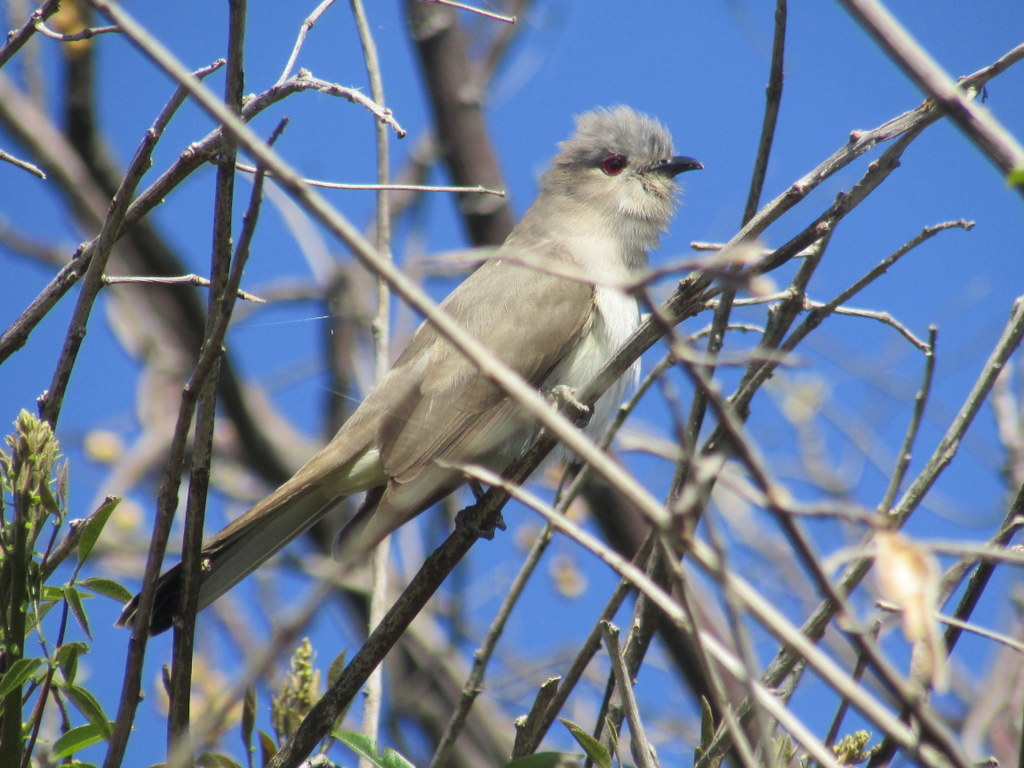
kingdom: Animalia
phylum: Chordata
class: Aves
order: Cuculiformes
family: Cuculidae
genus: Coccyzus
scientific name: Coccyzus cinereus
